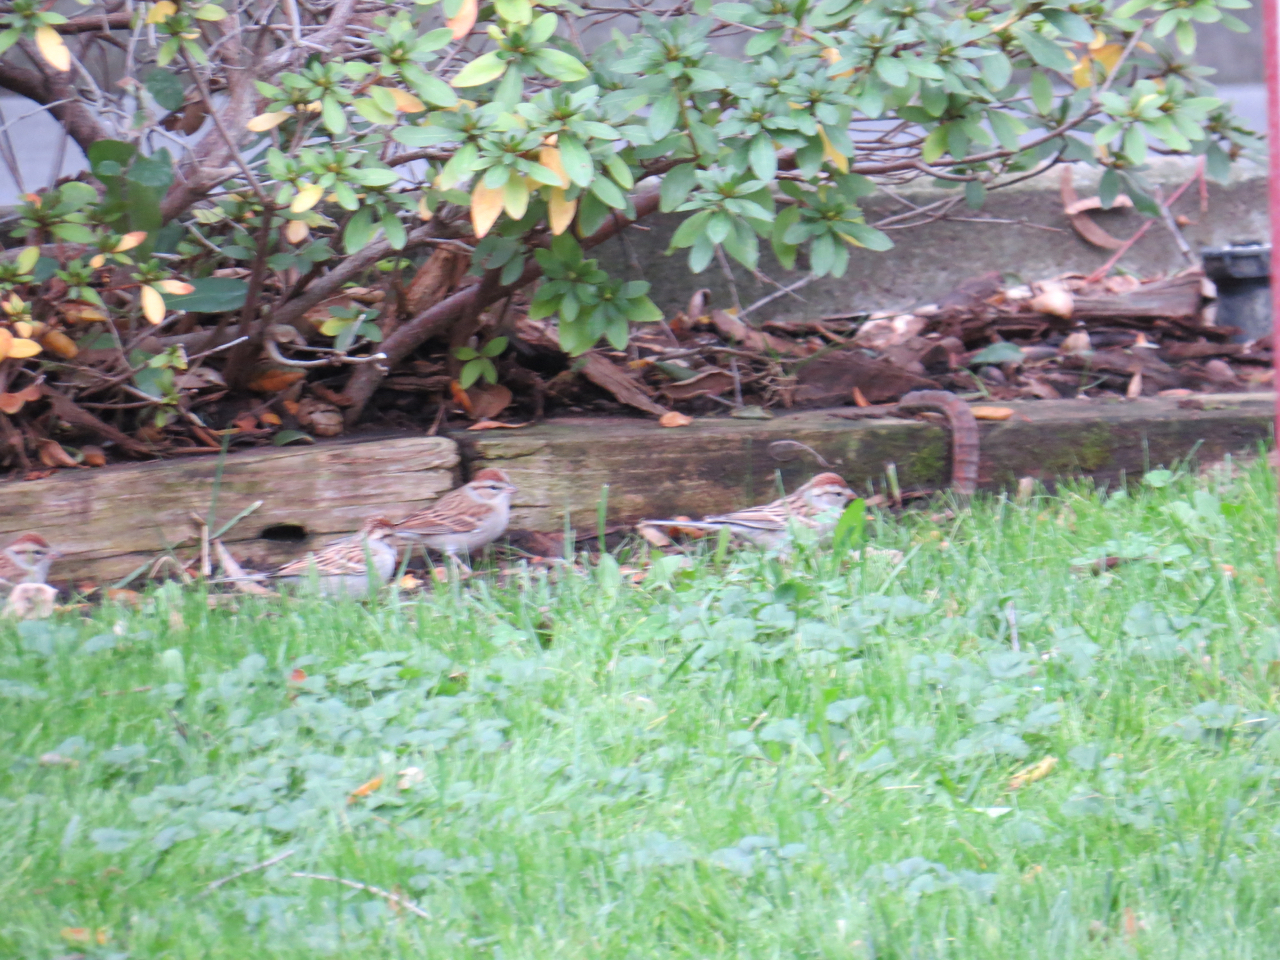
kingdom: Animalia
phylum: Chordata
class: Aves
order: Passeriformes
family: Passerellidae
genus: Spizella
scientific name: Spizella passerina
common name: Chipping sparrow
